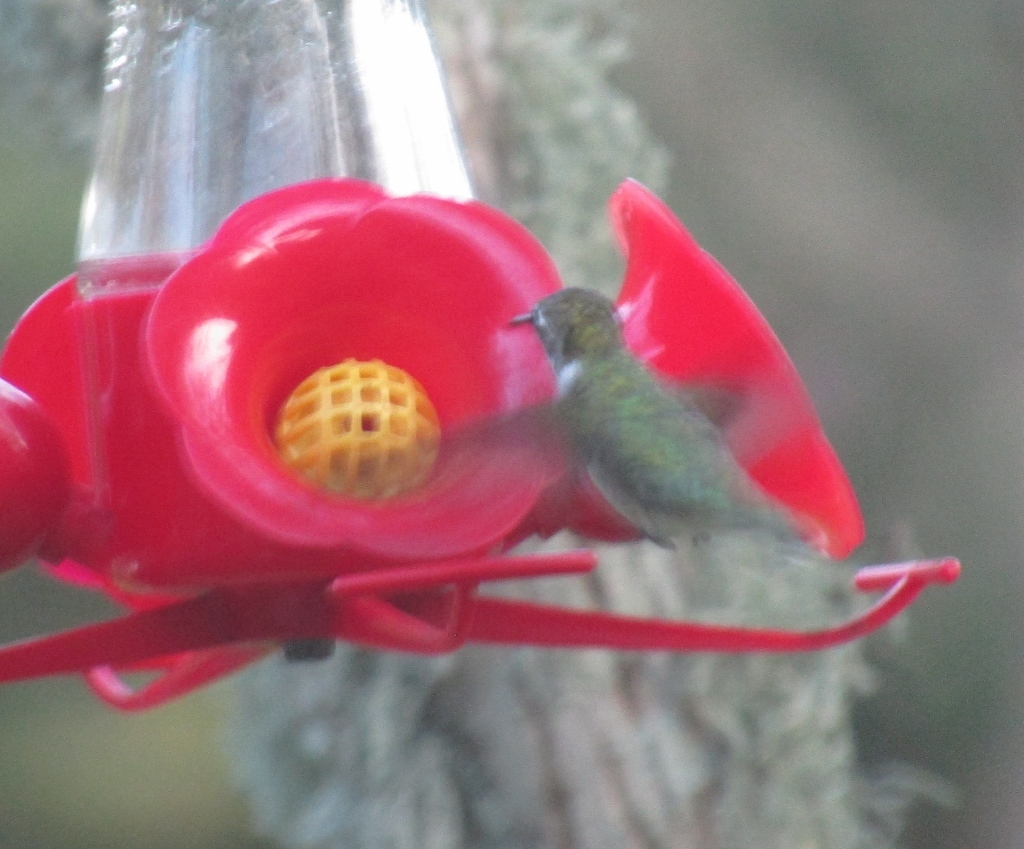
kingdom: Animalia
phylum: Chordata
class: Aves
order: Apodiformes
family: Trochilidae
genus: Archilochus
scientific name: Archilochus colubris
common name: Ruby-throated hummingbird
